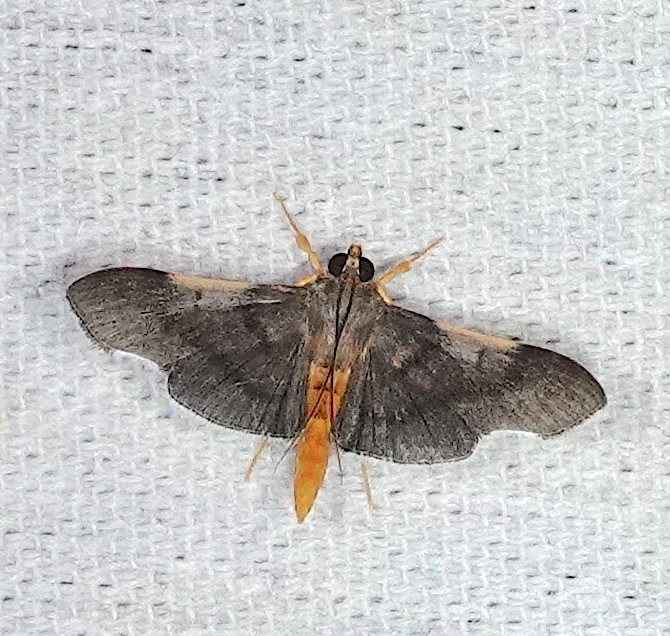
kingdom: Animalia
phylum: Arthropoda
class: Insecta
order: Lepidoptera
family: Crambidae
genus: Omiodes
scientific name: Omiodes pandaralis
